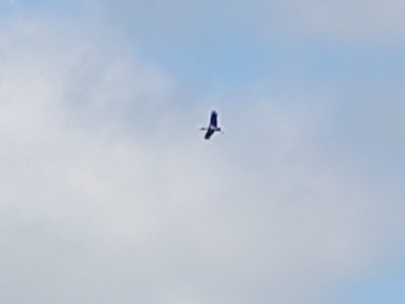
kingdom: Animalia
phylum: Chordata
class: Aves
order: Ciconiiformes
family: Ciconiidae
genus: Ciconia
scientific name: Ciconia nigra
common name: Black stork
